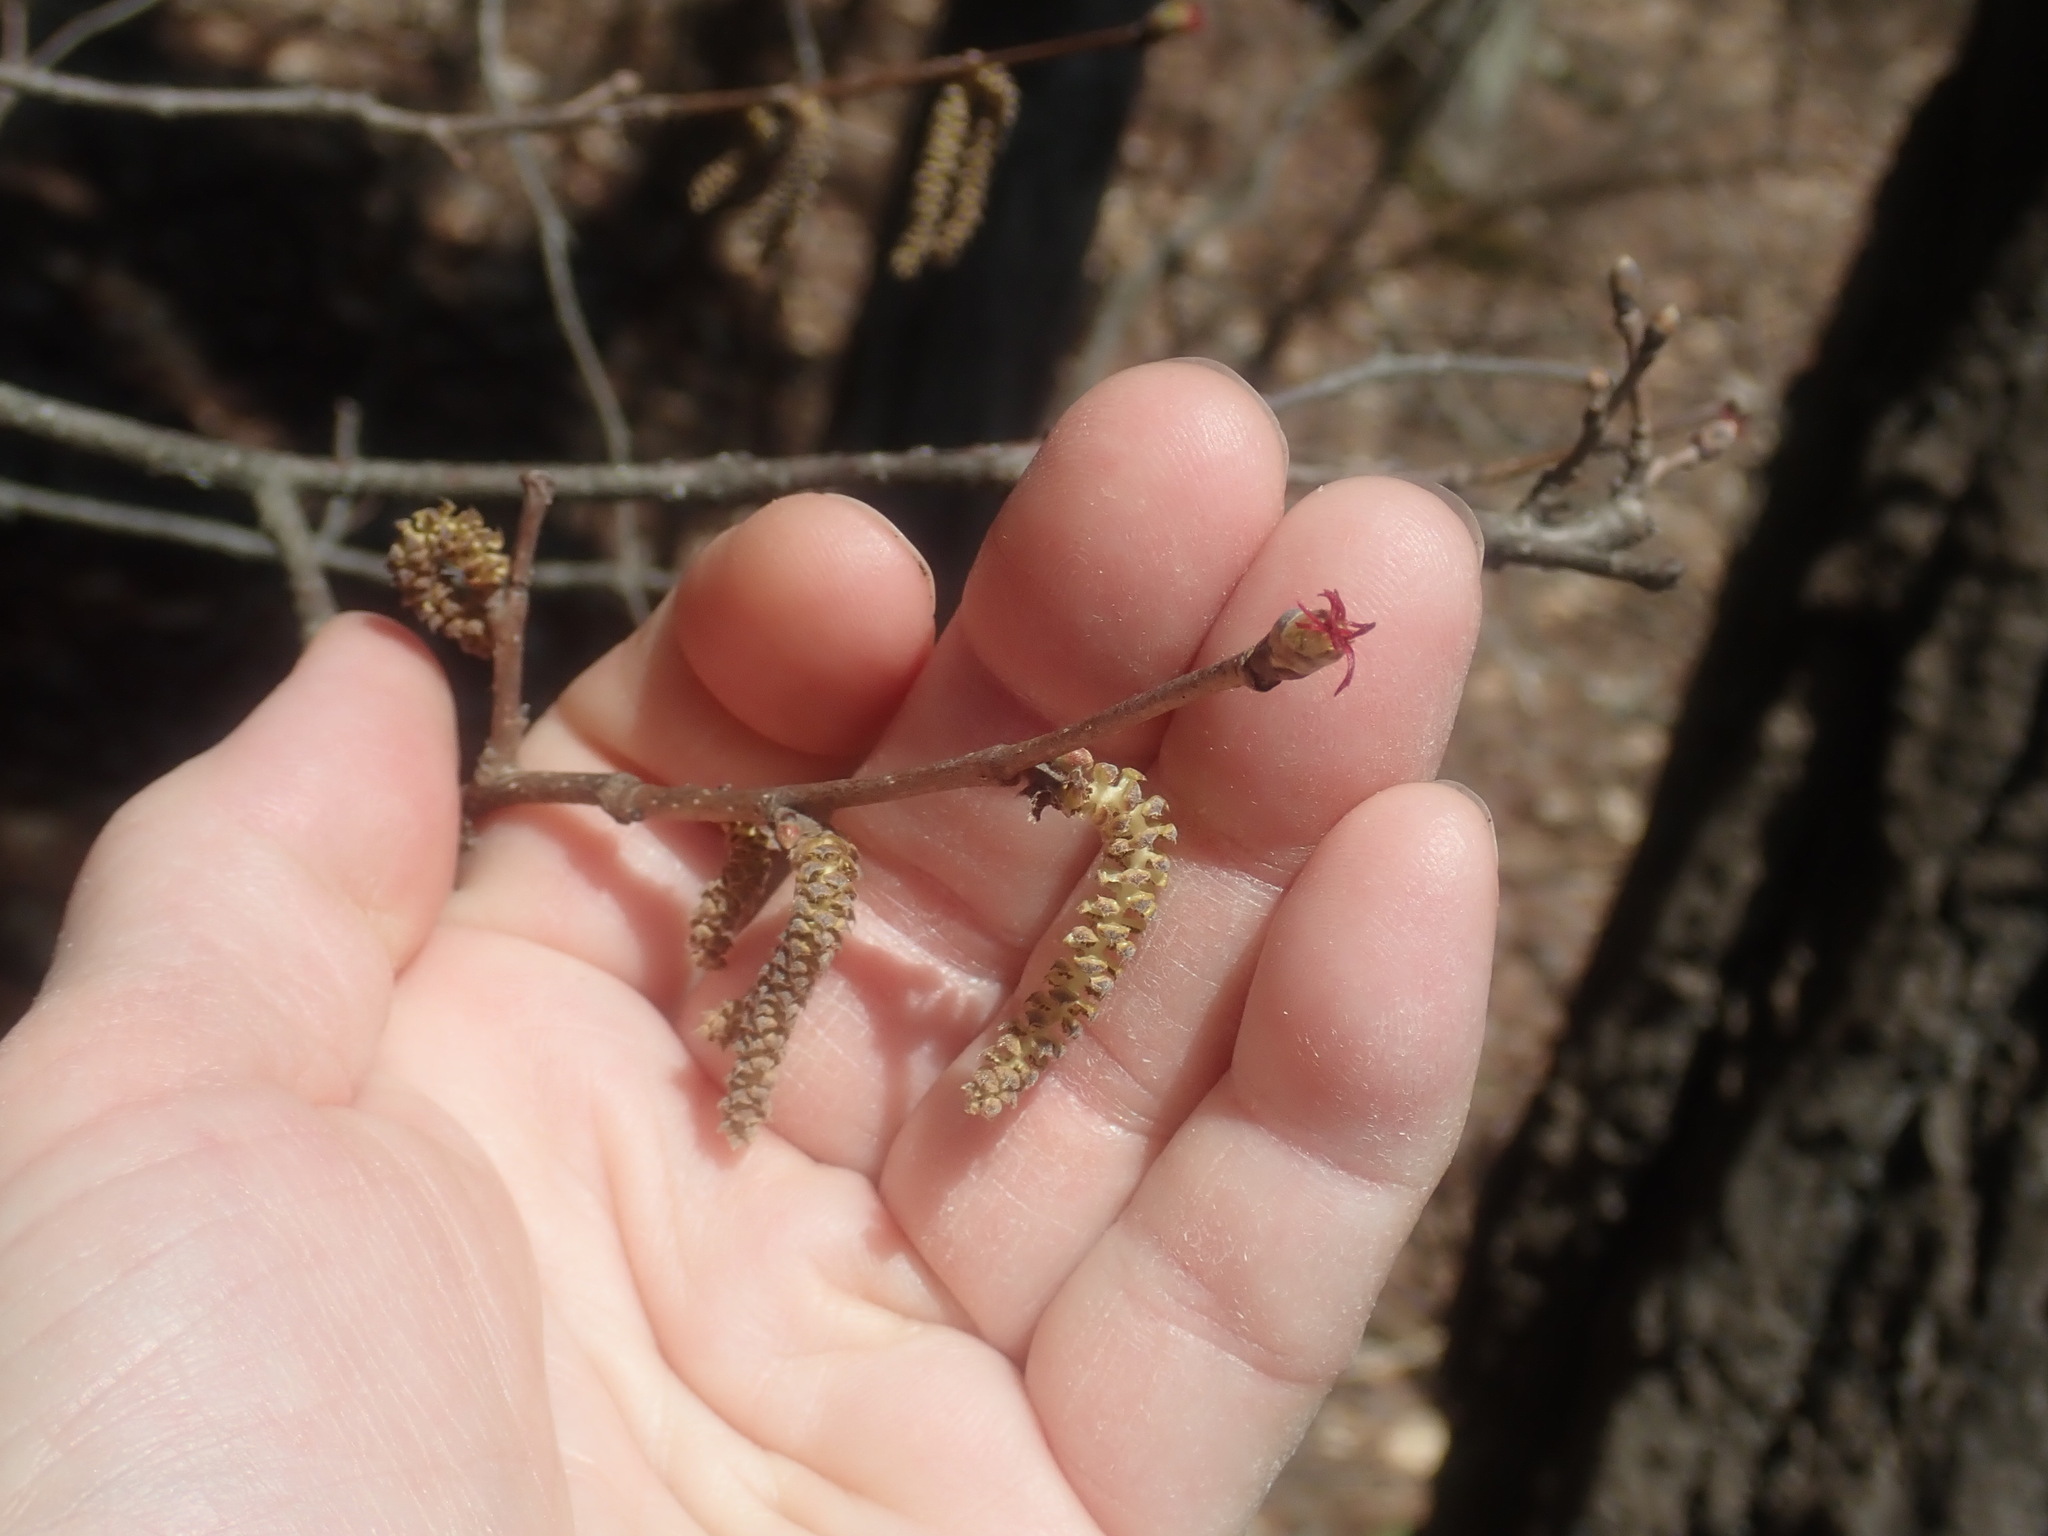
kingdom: Plantae
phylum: Tracheophyta
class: Magnoliopsida
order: Fagales
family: Betulaceae
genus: Corylus
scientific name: Corylus cornuta
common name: Beaked hazel
